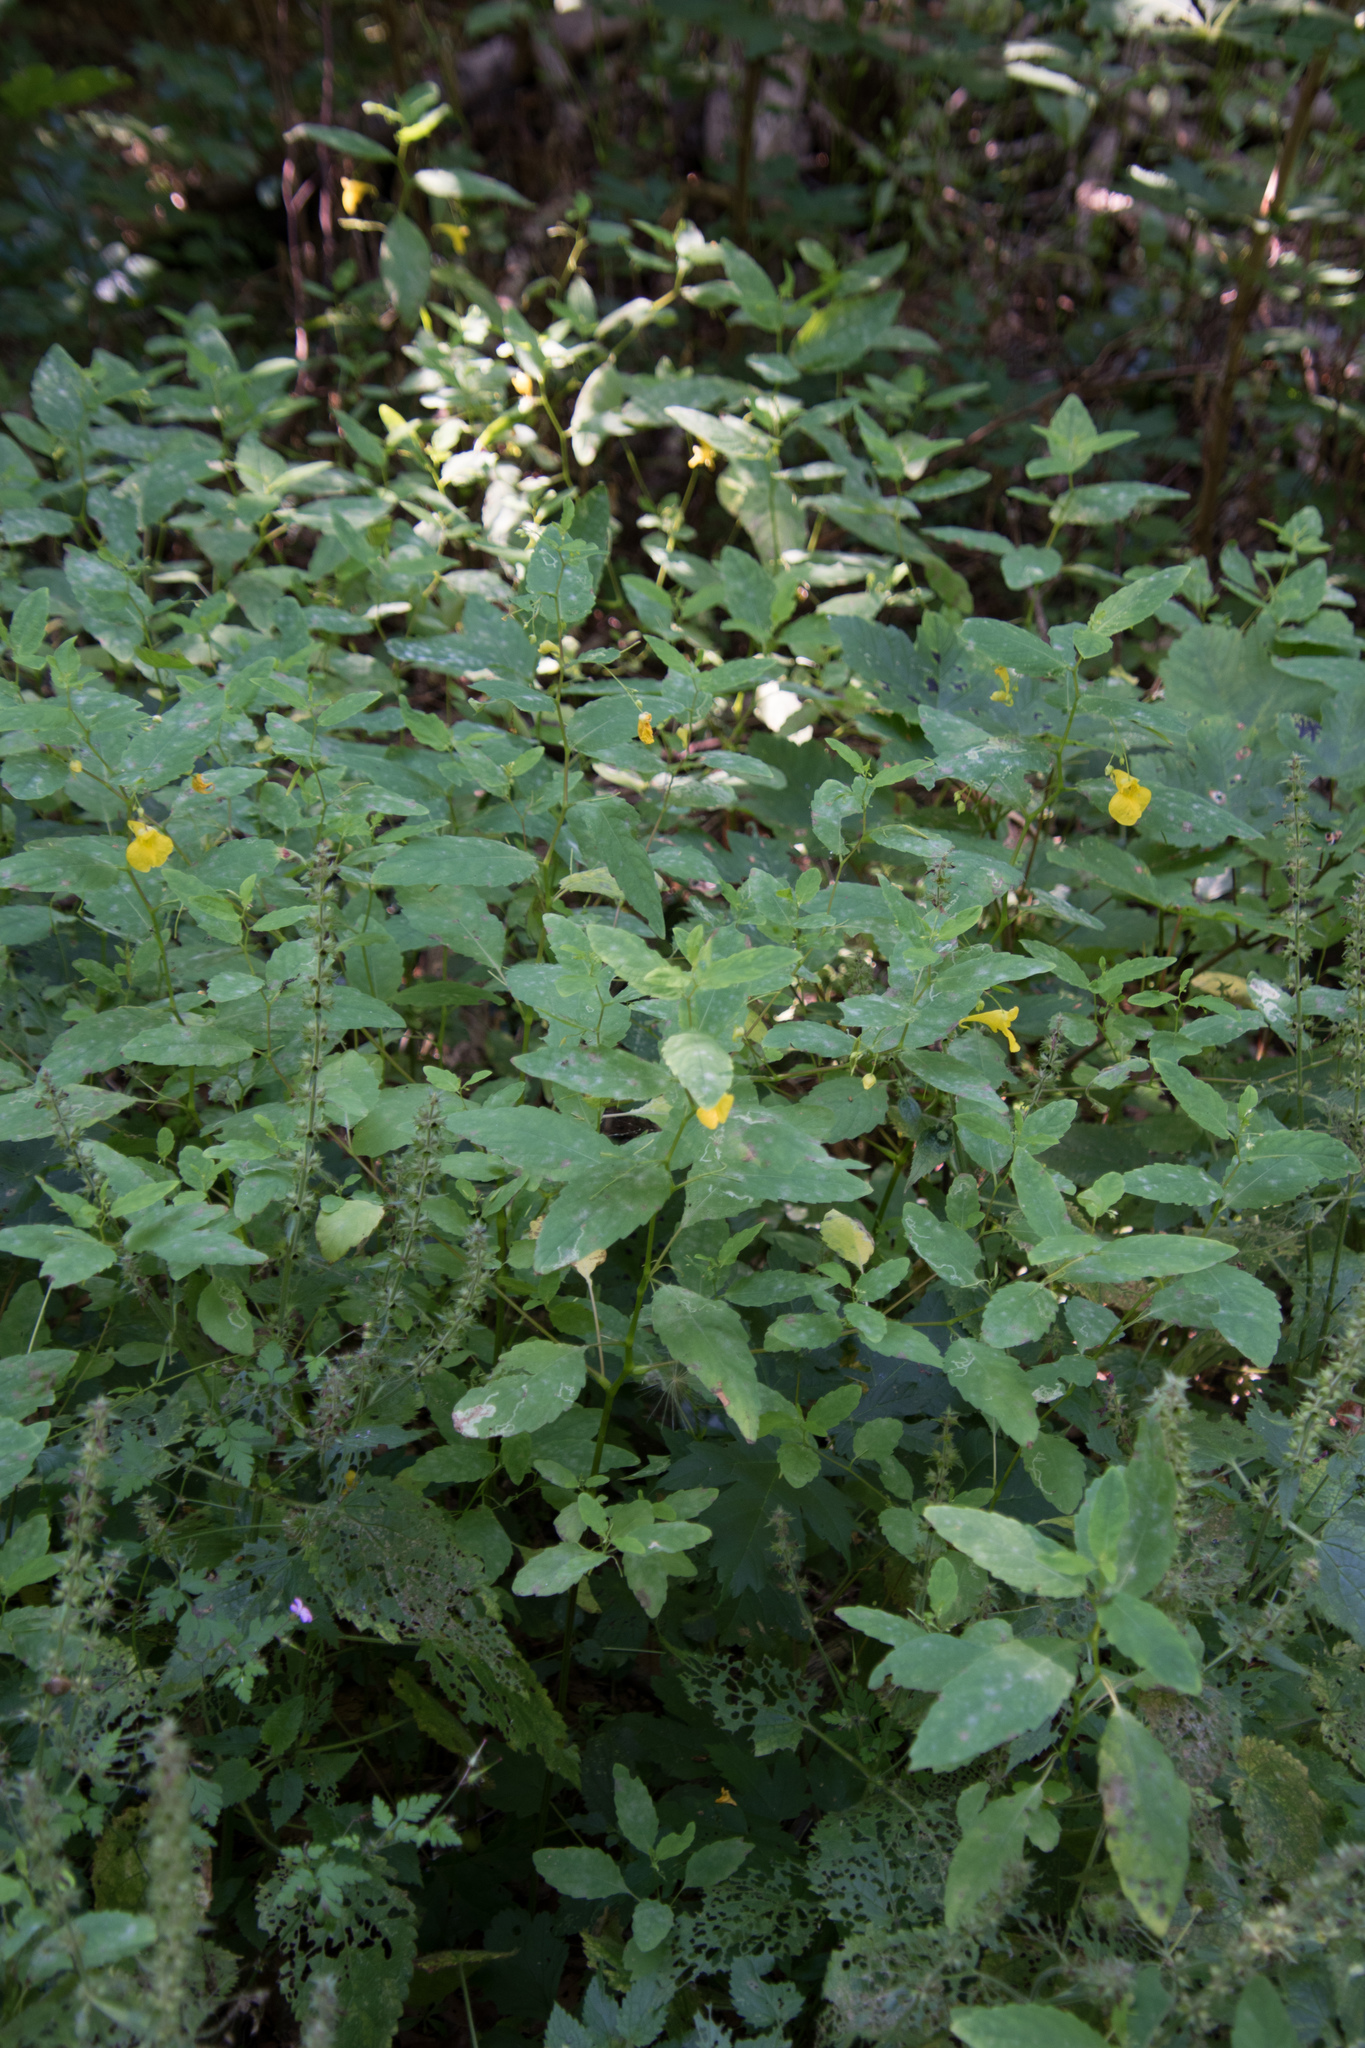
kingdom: Plantae
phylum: Tracheophyta
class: Magnoliopsida
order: Ericales
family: Balsaminaceae
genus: Impatiens
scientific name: Impatiens noli-tangere
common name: Touch-me-not balsam
